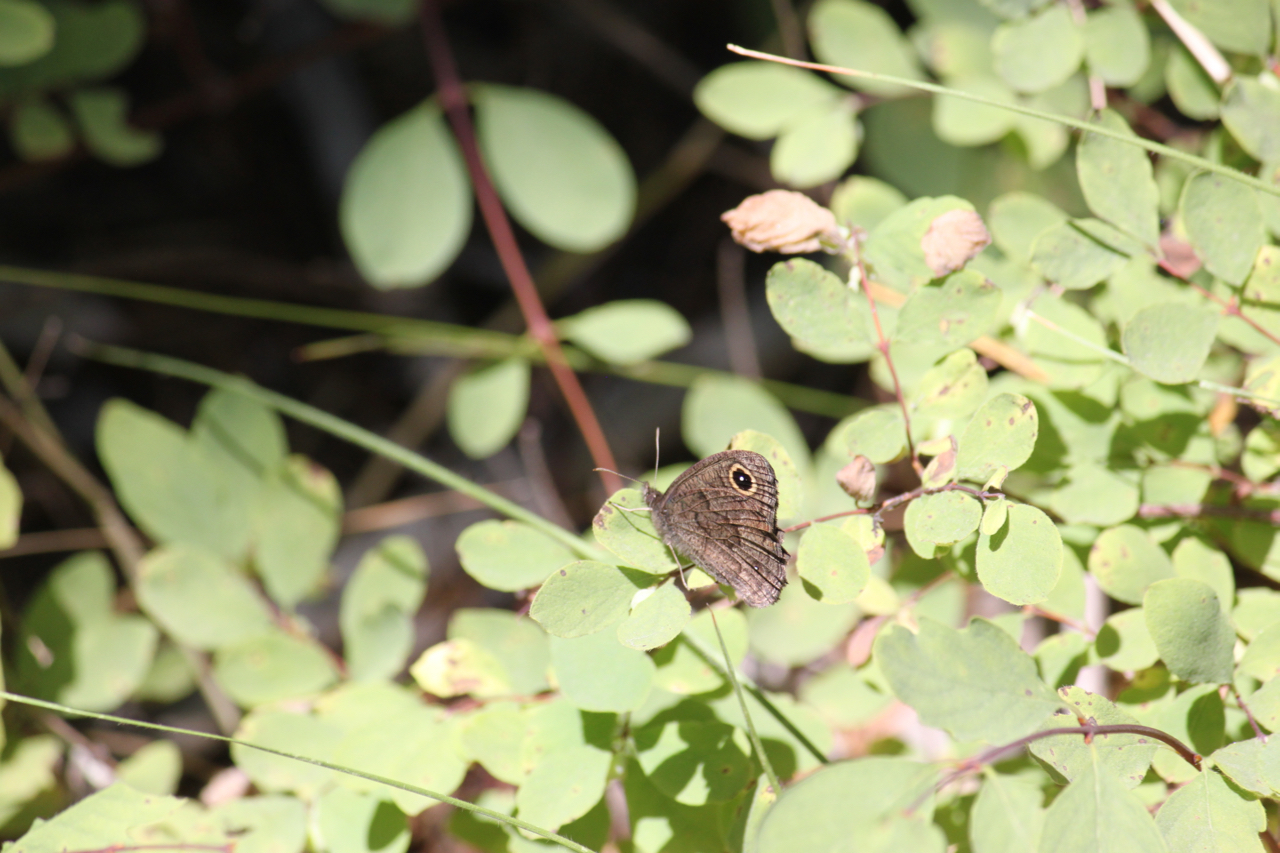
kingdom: Animalia
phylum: Arthropoda
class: Insecta
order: Lepidoptera
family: Nymphalidae
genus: Cercyonis
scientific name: Cercyonis pegala
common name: Common wood-nymph
